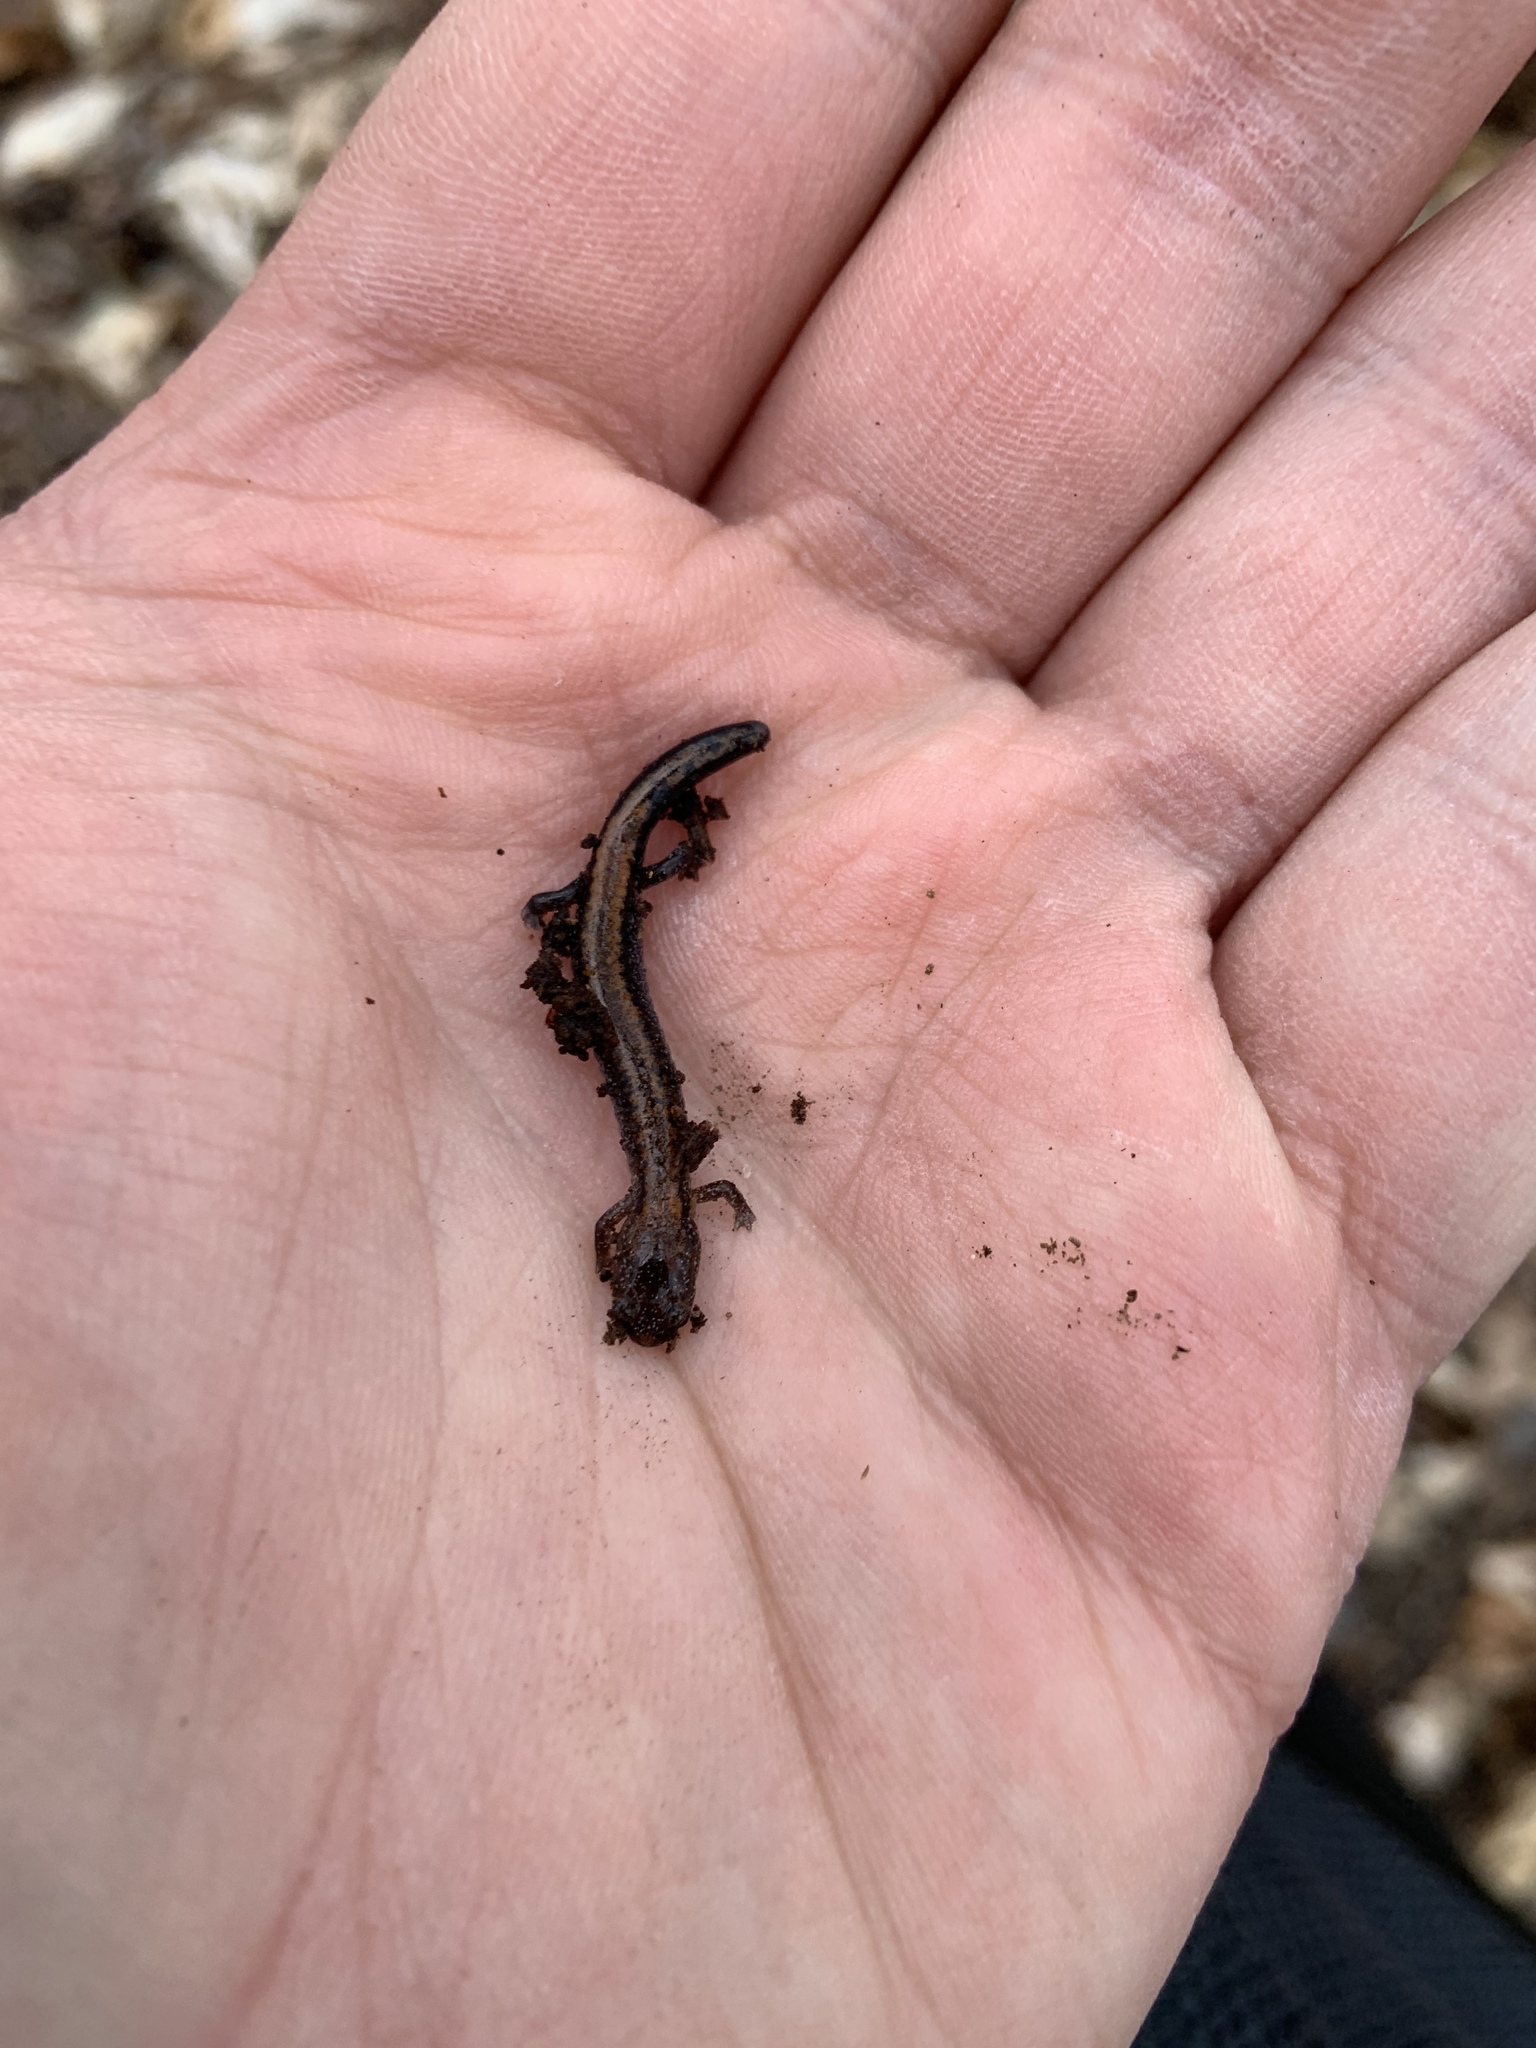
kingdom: Animalia
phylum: Chordata
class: Amphibia
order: Caudata
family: Plethodontidae
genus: Plethodon
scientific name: Plethodon cinereus
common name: Redback salamander
